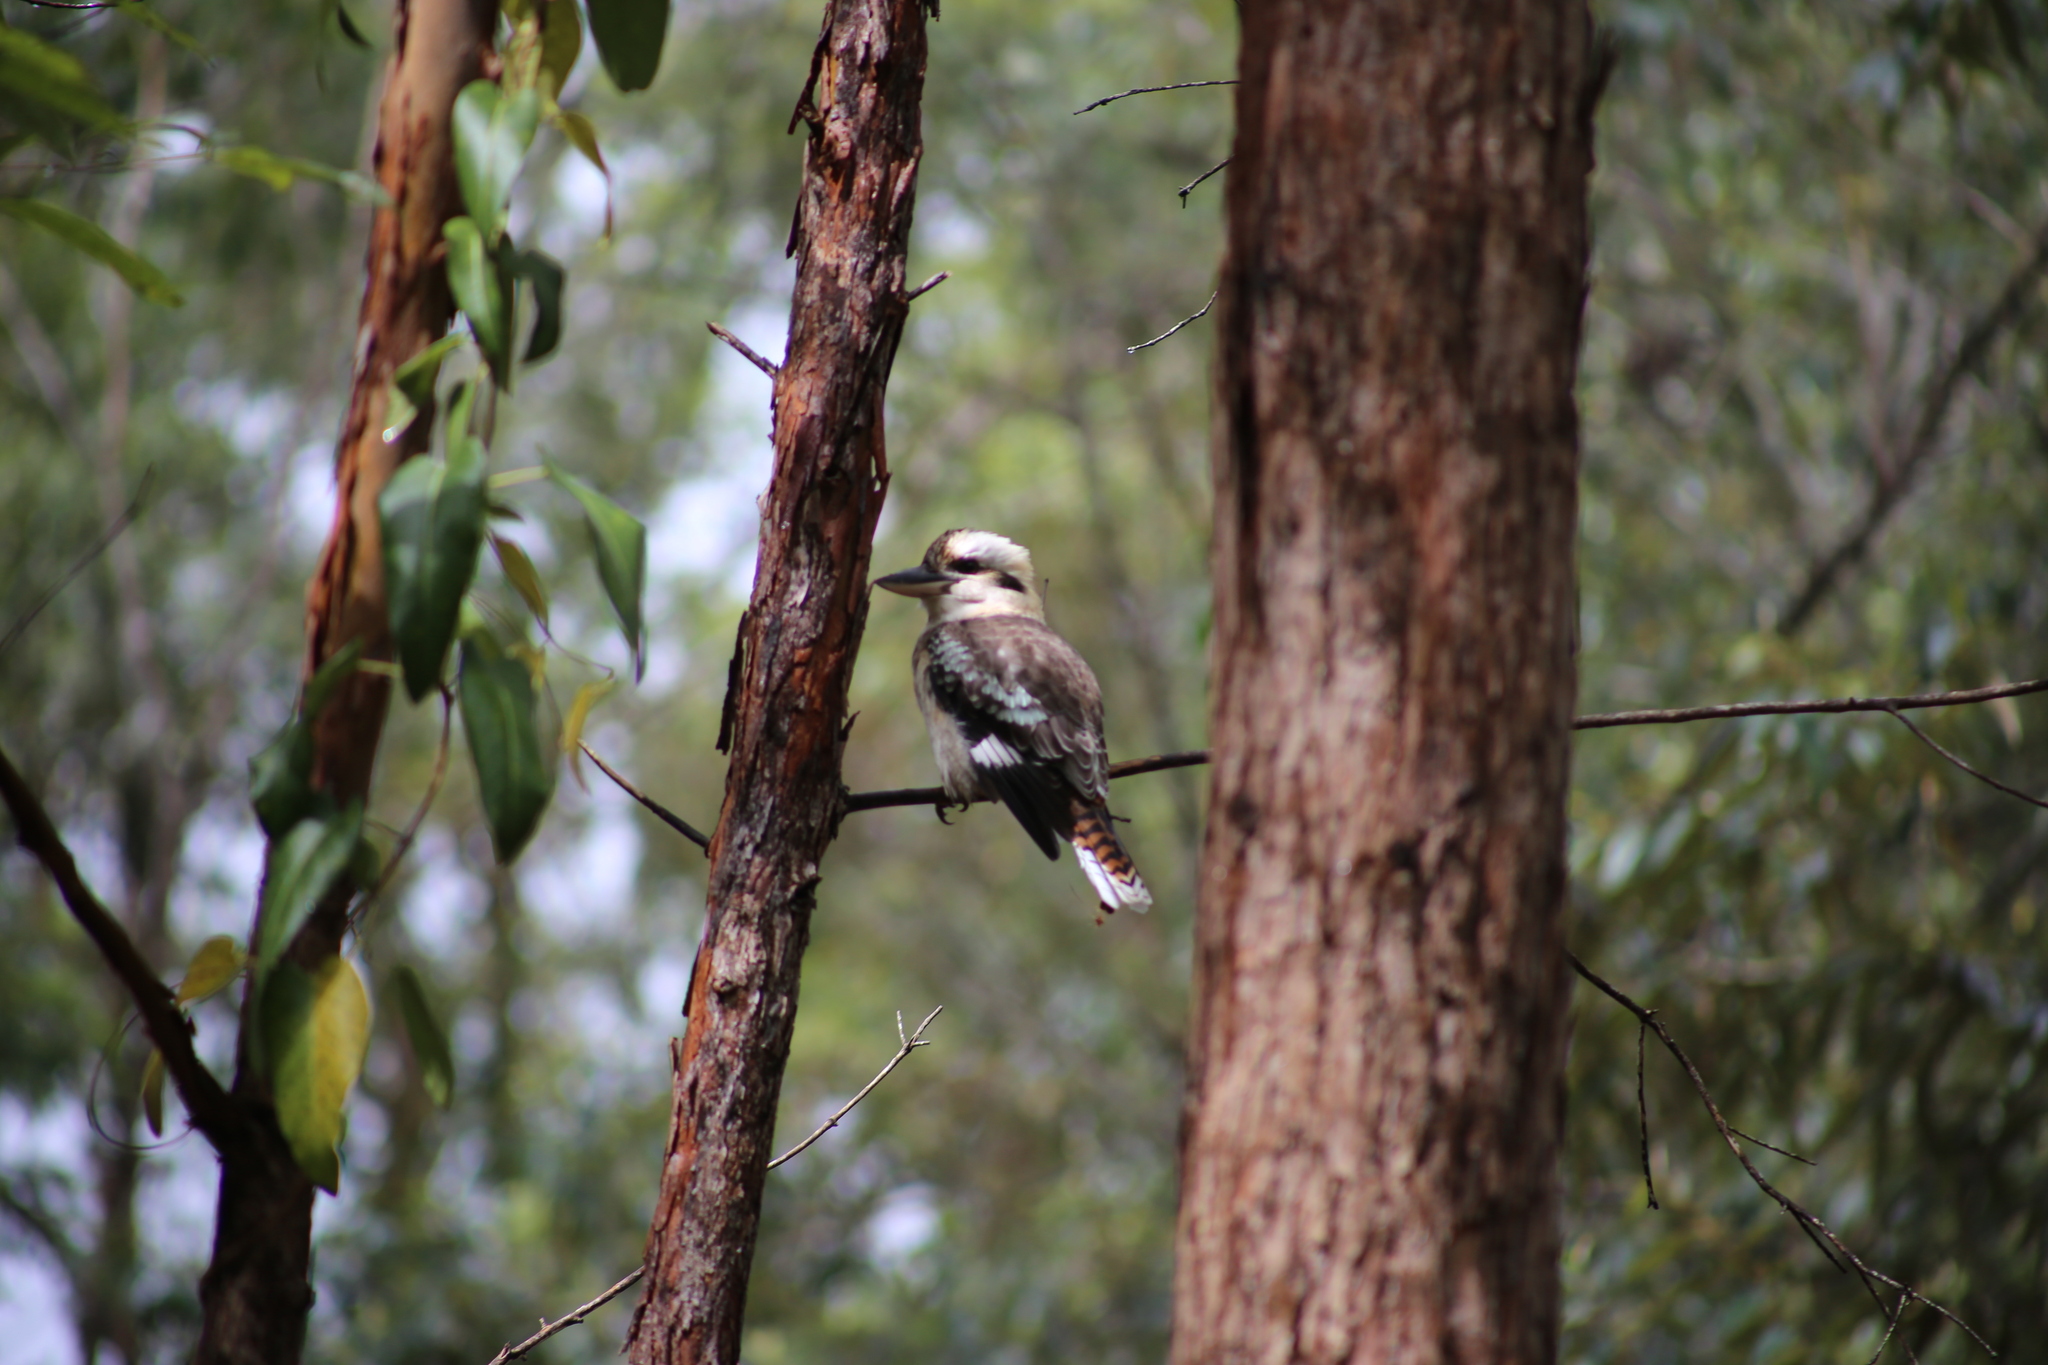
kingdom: Animalia
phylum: Chordata
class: Aves
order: Coraciiformes
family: Alcedinidae
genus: Dacelo
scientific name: Dacelo novaeguineae
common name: Laughing kookaburra
